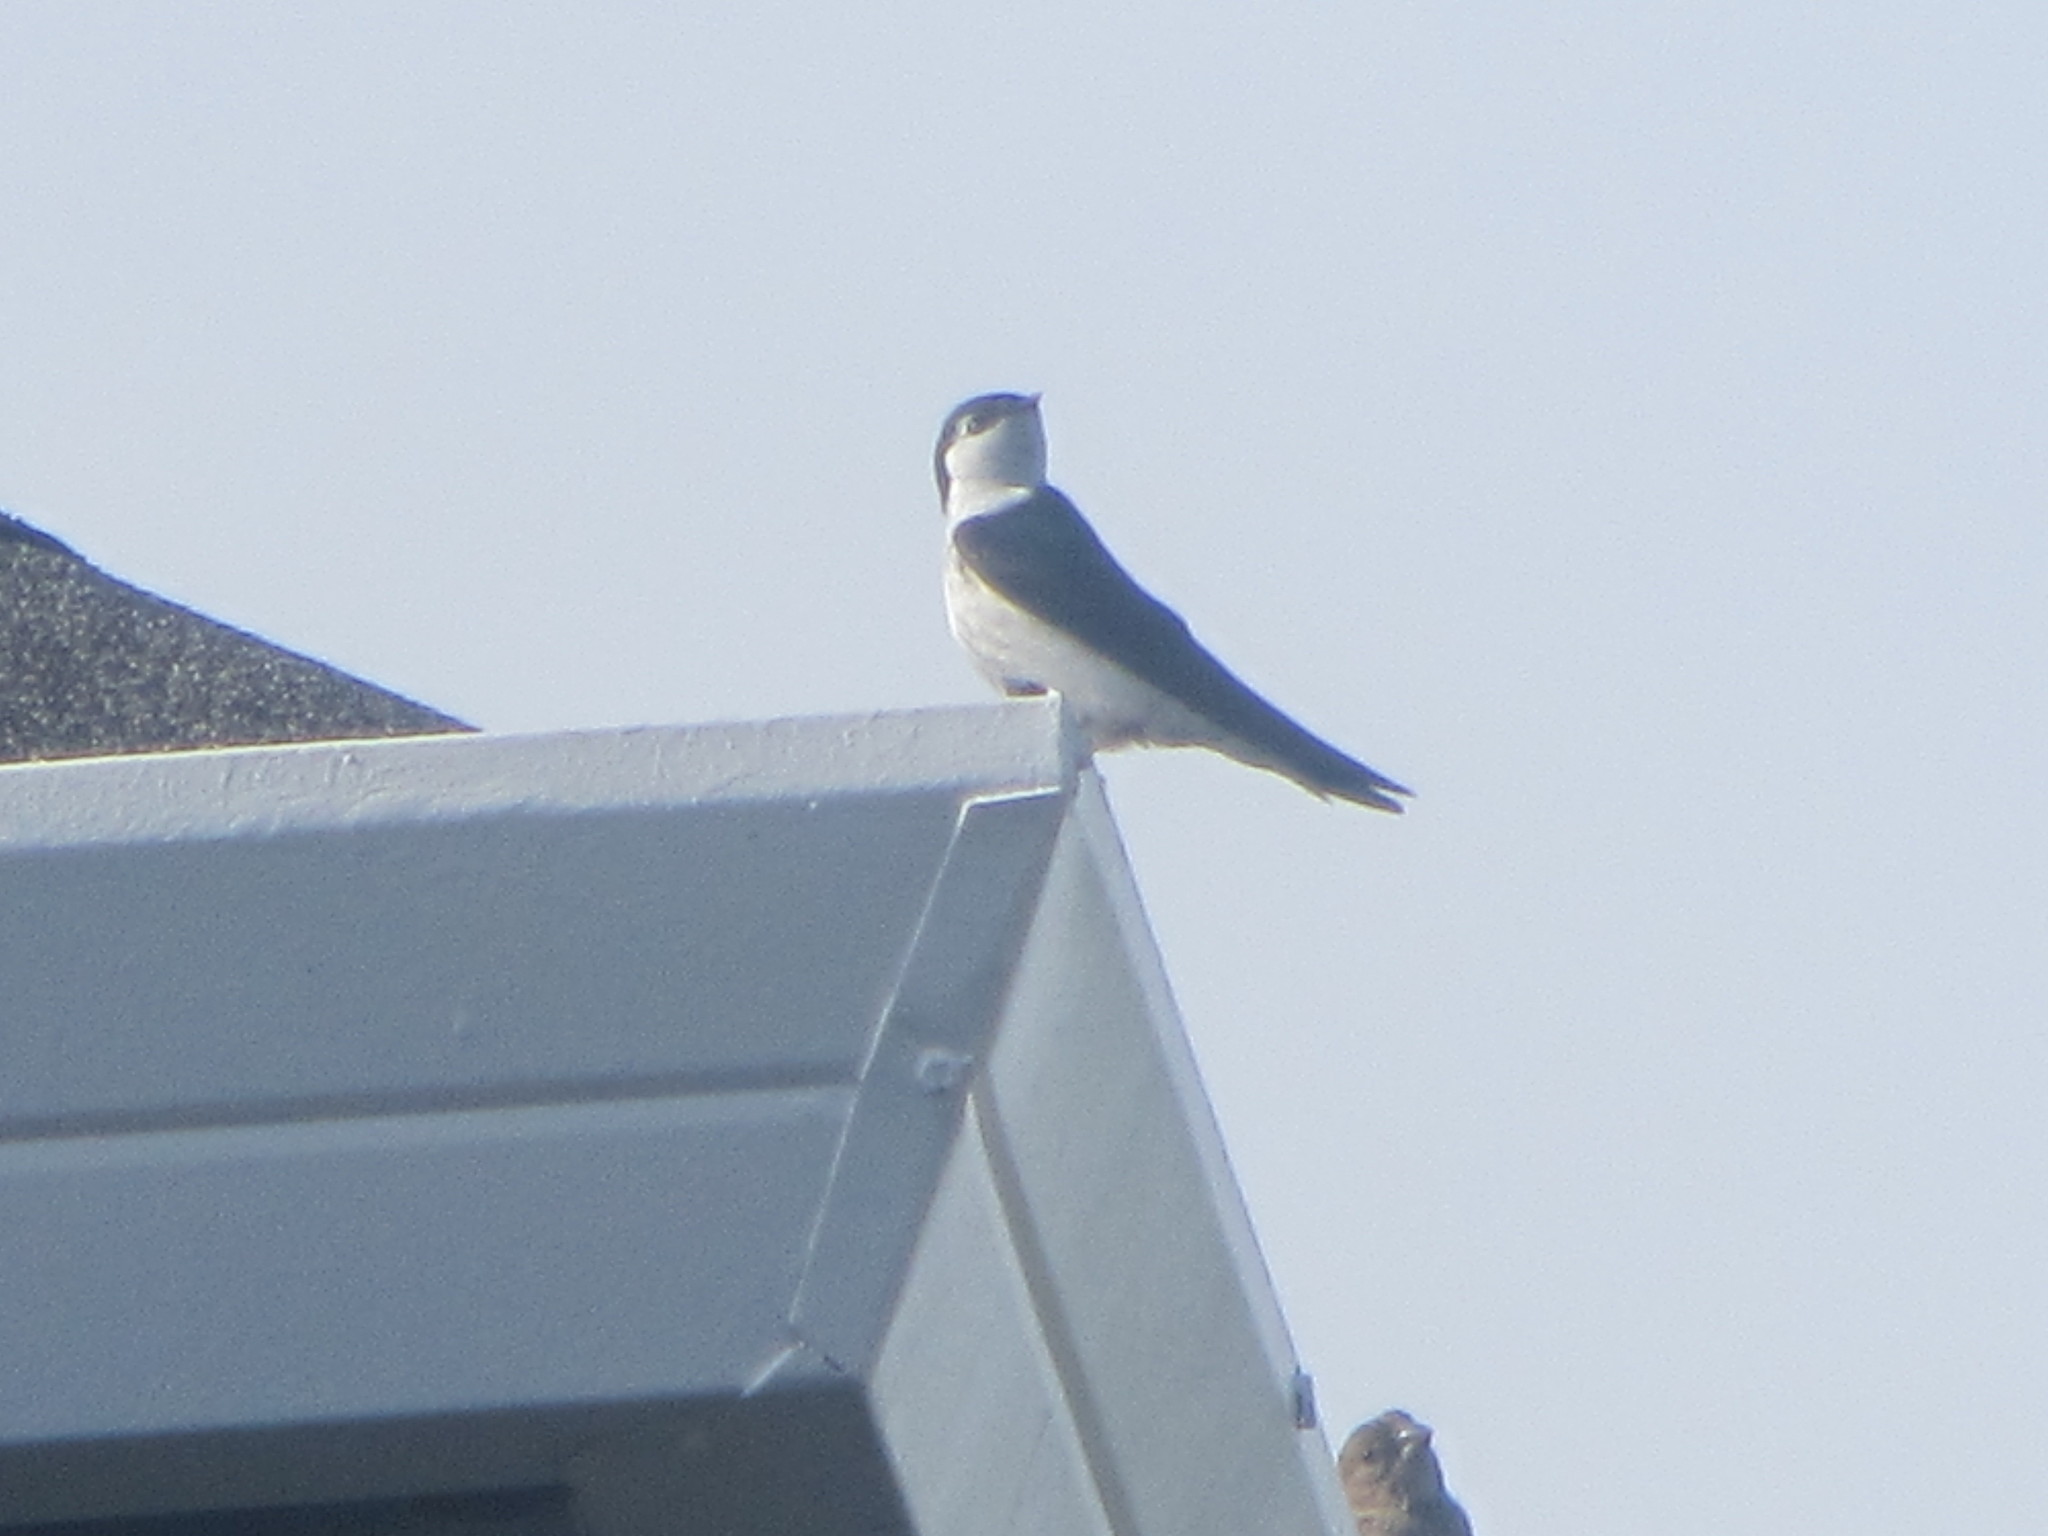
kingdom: Animalia
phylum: Chordata
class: Aves
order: Passeriformes
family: Hirundinidae
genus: Tachycineta
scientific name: Tachycineta thalassina
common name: Violet-green swallow
